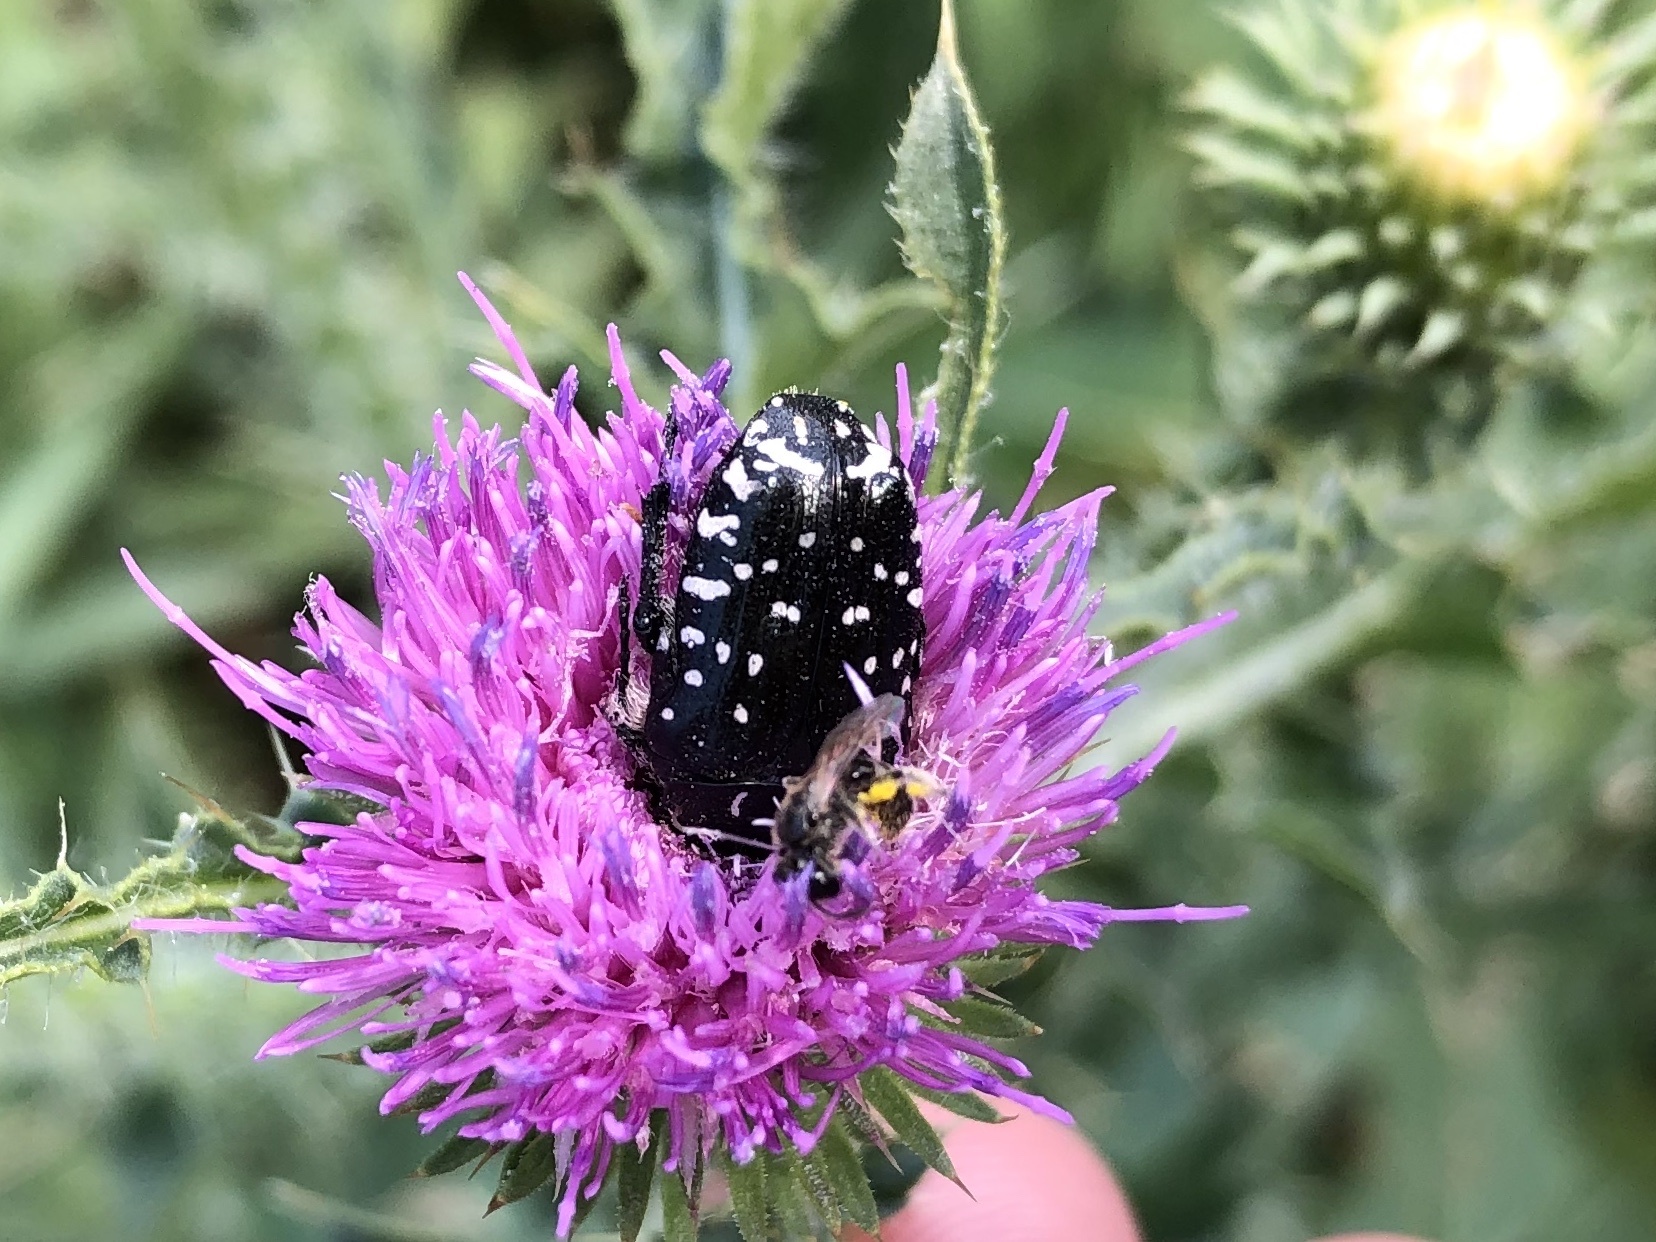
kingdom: Animalia
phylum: Arthropoda
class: Insecta
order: Coleoptera
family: Scarabaeidae
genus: Oxythyrea
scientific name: Oxythyrea funesta
